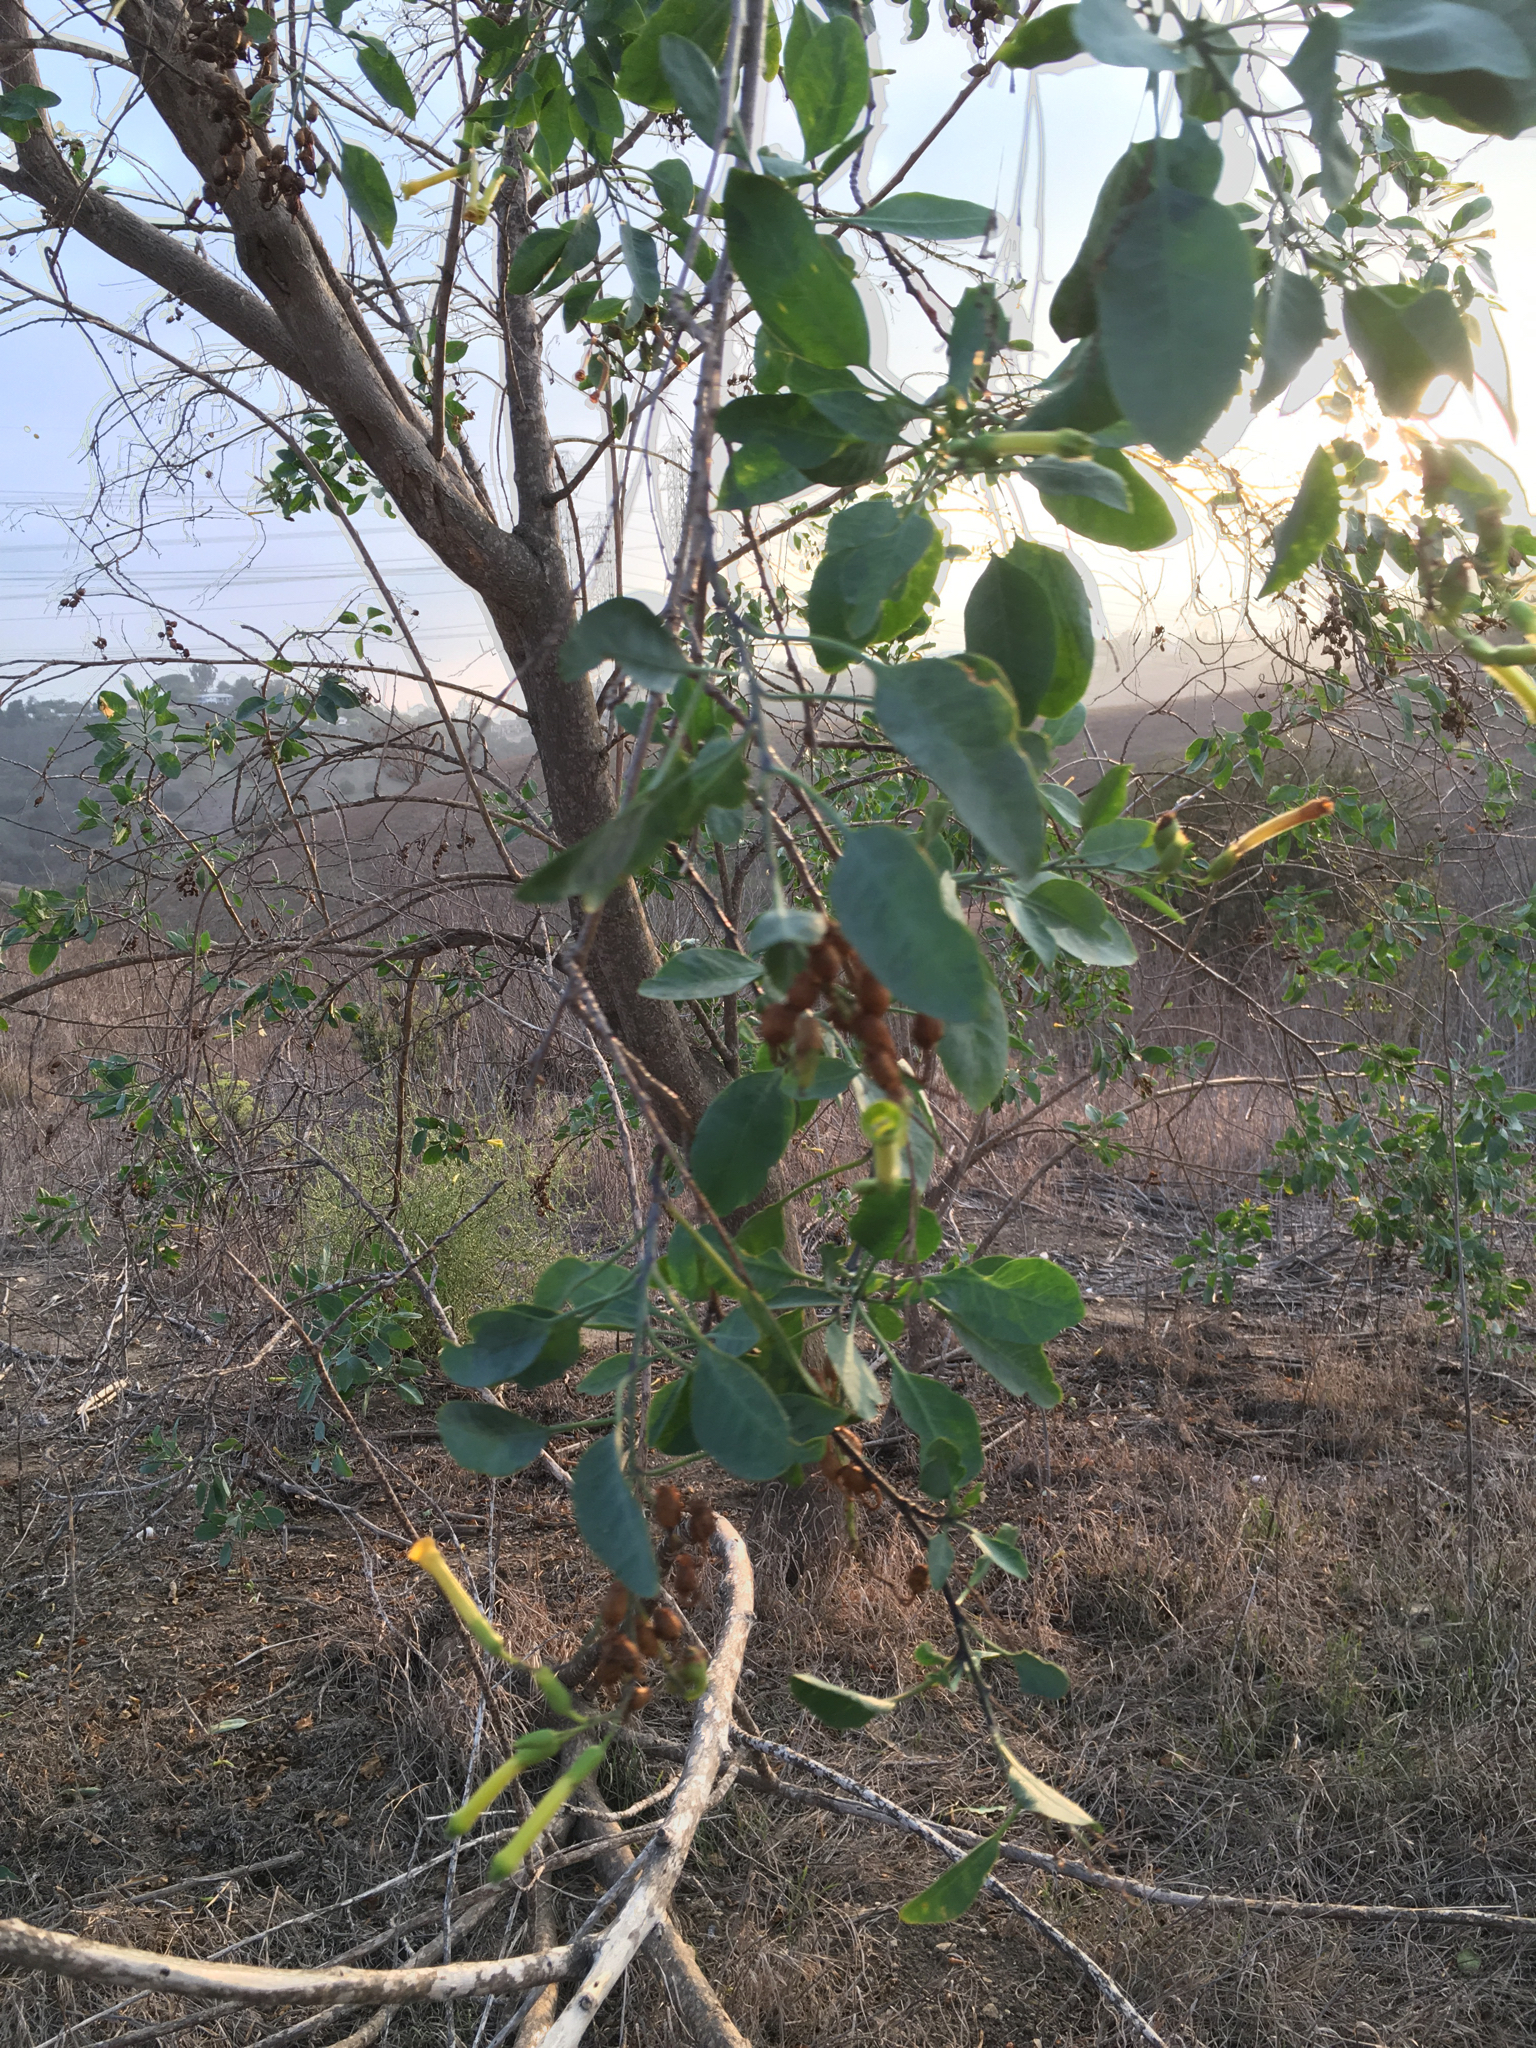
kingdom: Plantae
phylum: Tracheophyta
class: Magnoliopsida
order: Solanales
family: Solanaceae
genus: Nicotiana
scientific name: Nicotiana glauca
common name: Tree tobacco
